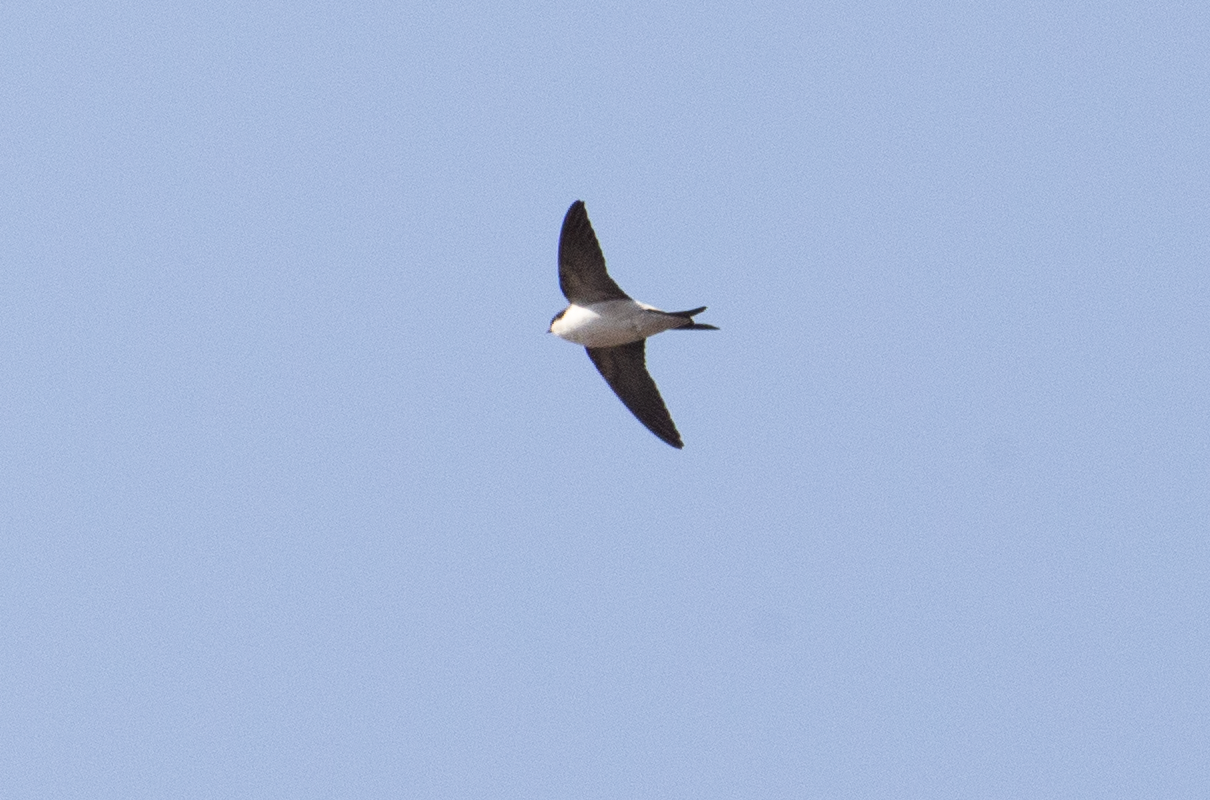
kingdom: Animalia
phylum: Chordata
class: Aves
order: Passeriformes
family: Hirundinidae
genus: Delichon
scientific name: Delichon urbicum
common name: Common house martin
